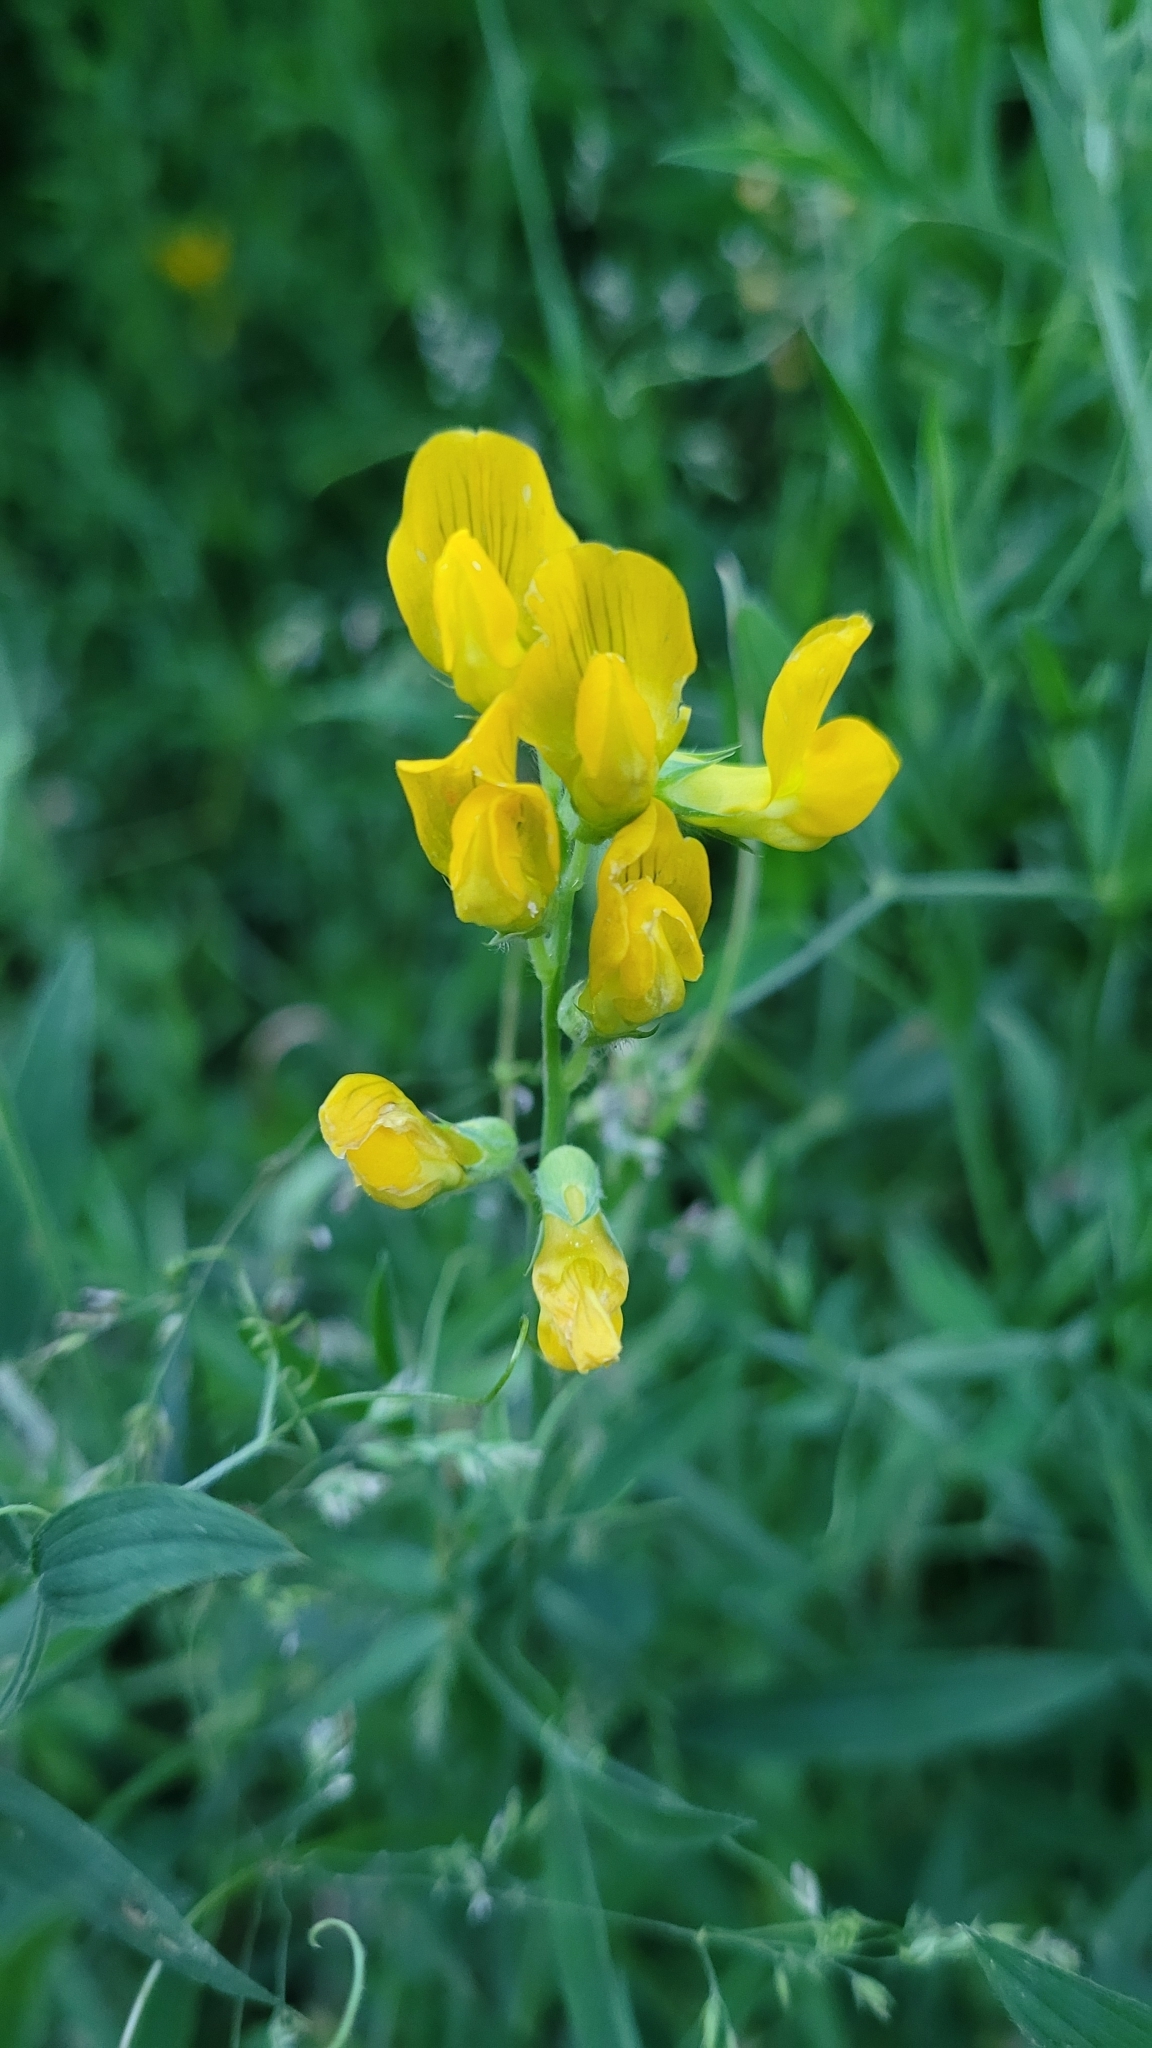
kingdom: Plantae
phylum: Tracheophyta
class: Magnoliopsida
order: Fabales
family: Fabaceae
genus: Lathyrus
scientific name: Lathyrus pratensis
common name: Meadow vetchling
